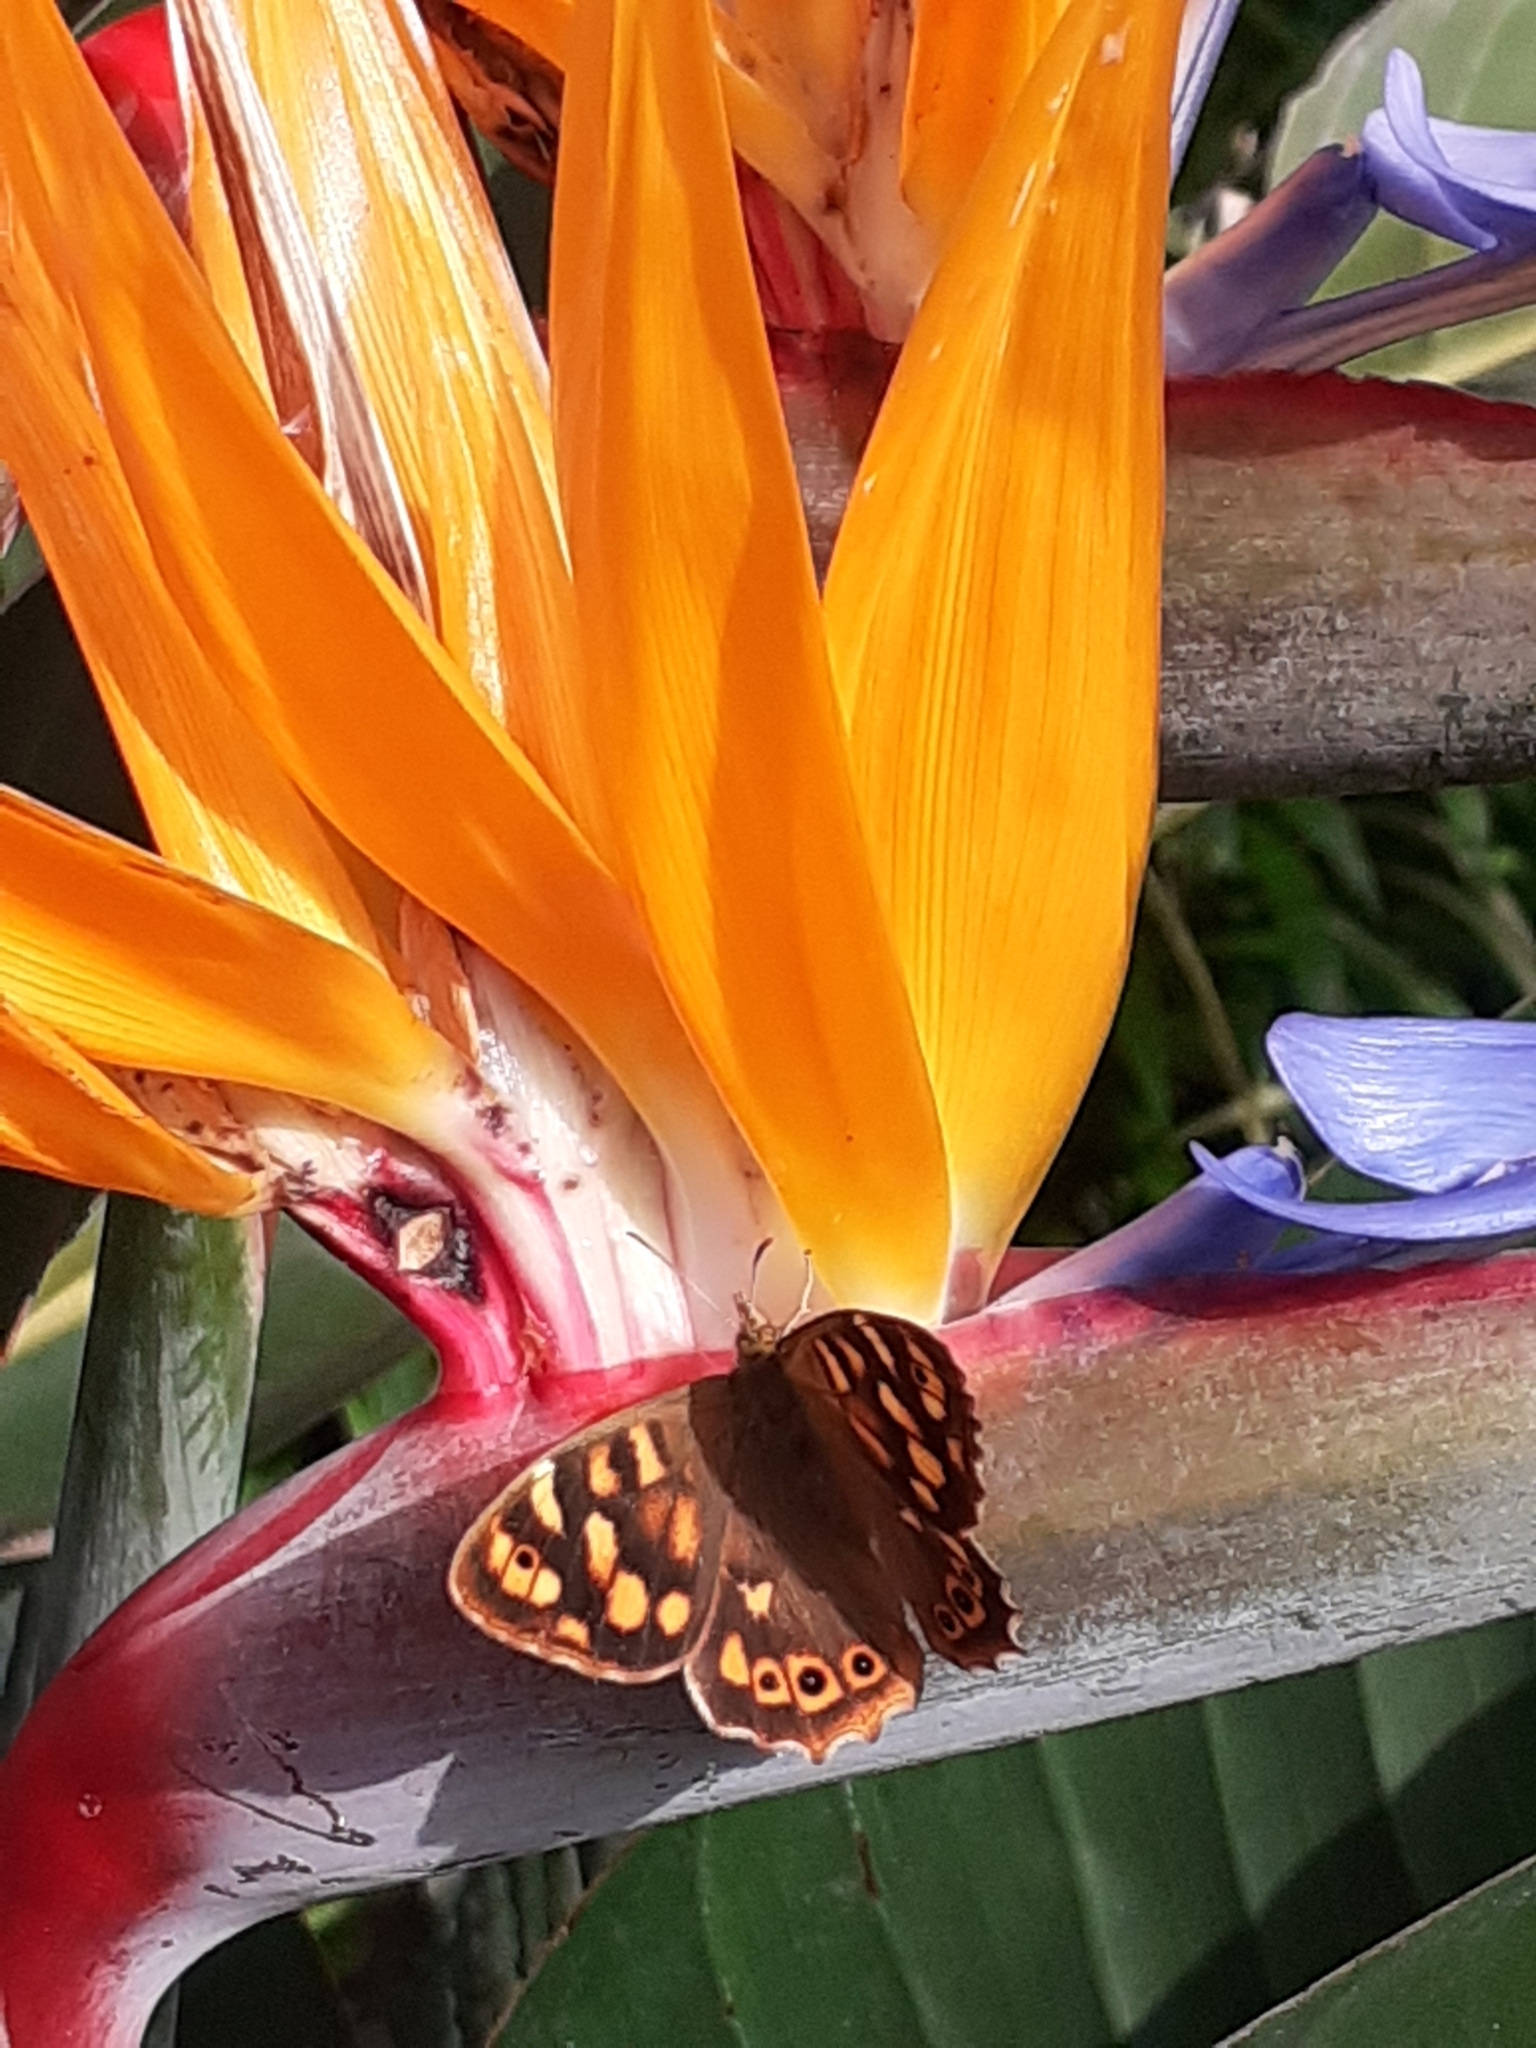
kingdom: Animalia
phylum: Arthropoda
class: Insecta
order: Lepidoptera
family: Nymphalidae
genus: Pararge
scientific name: Pararge aegeria
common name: Speckled wood
